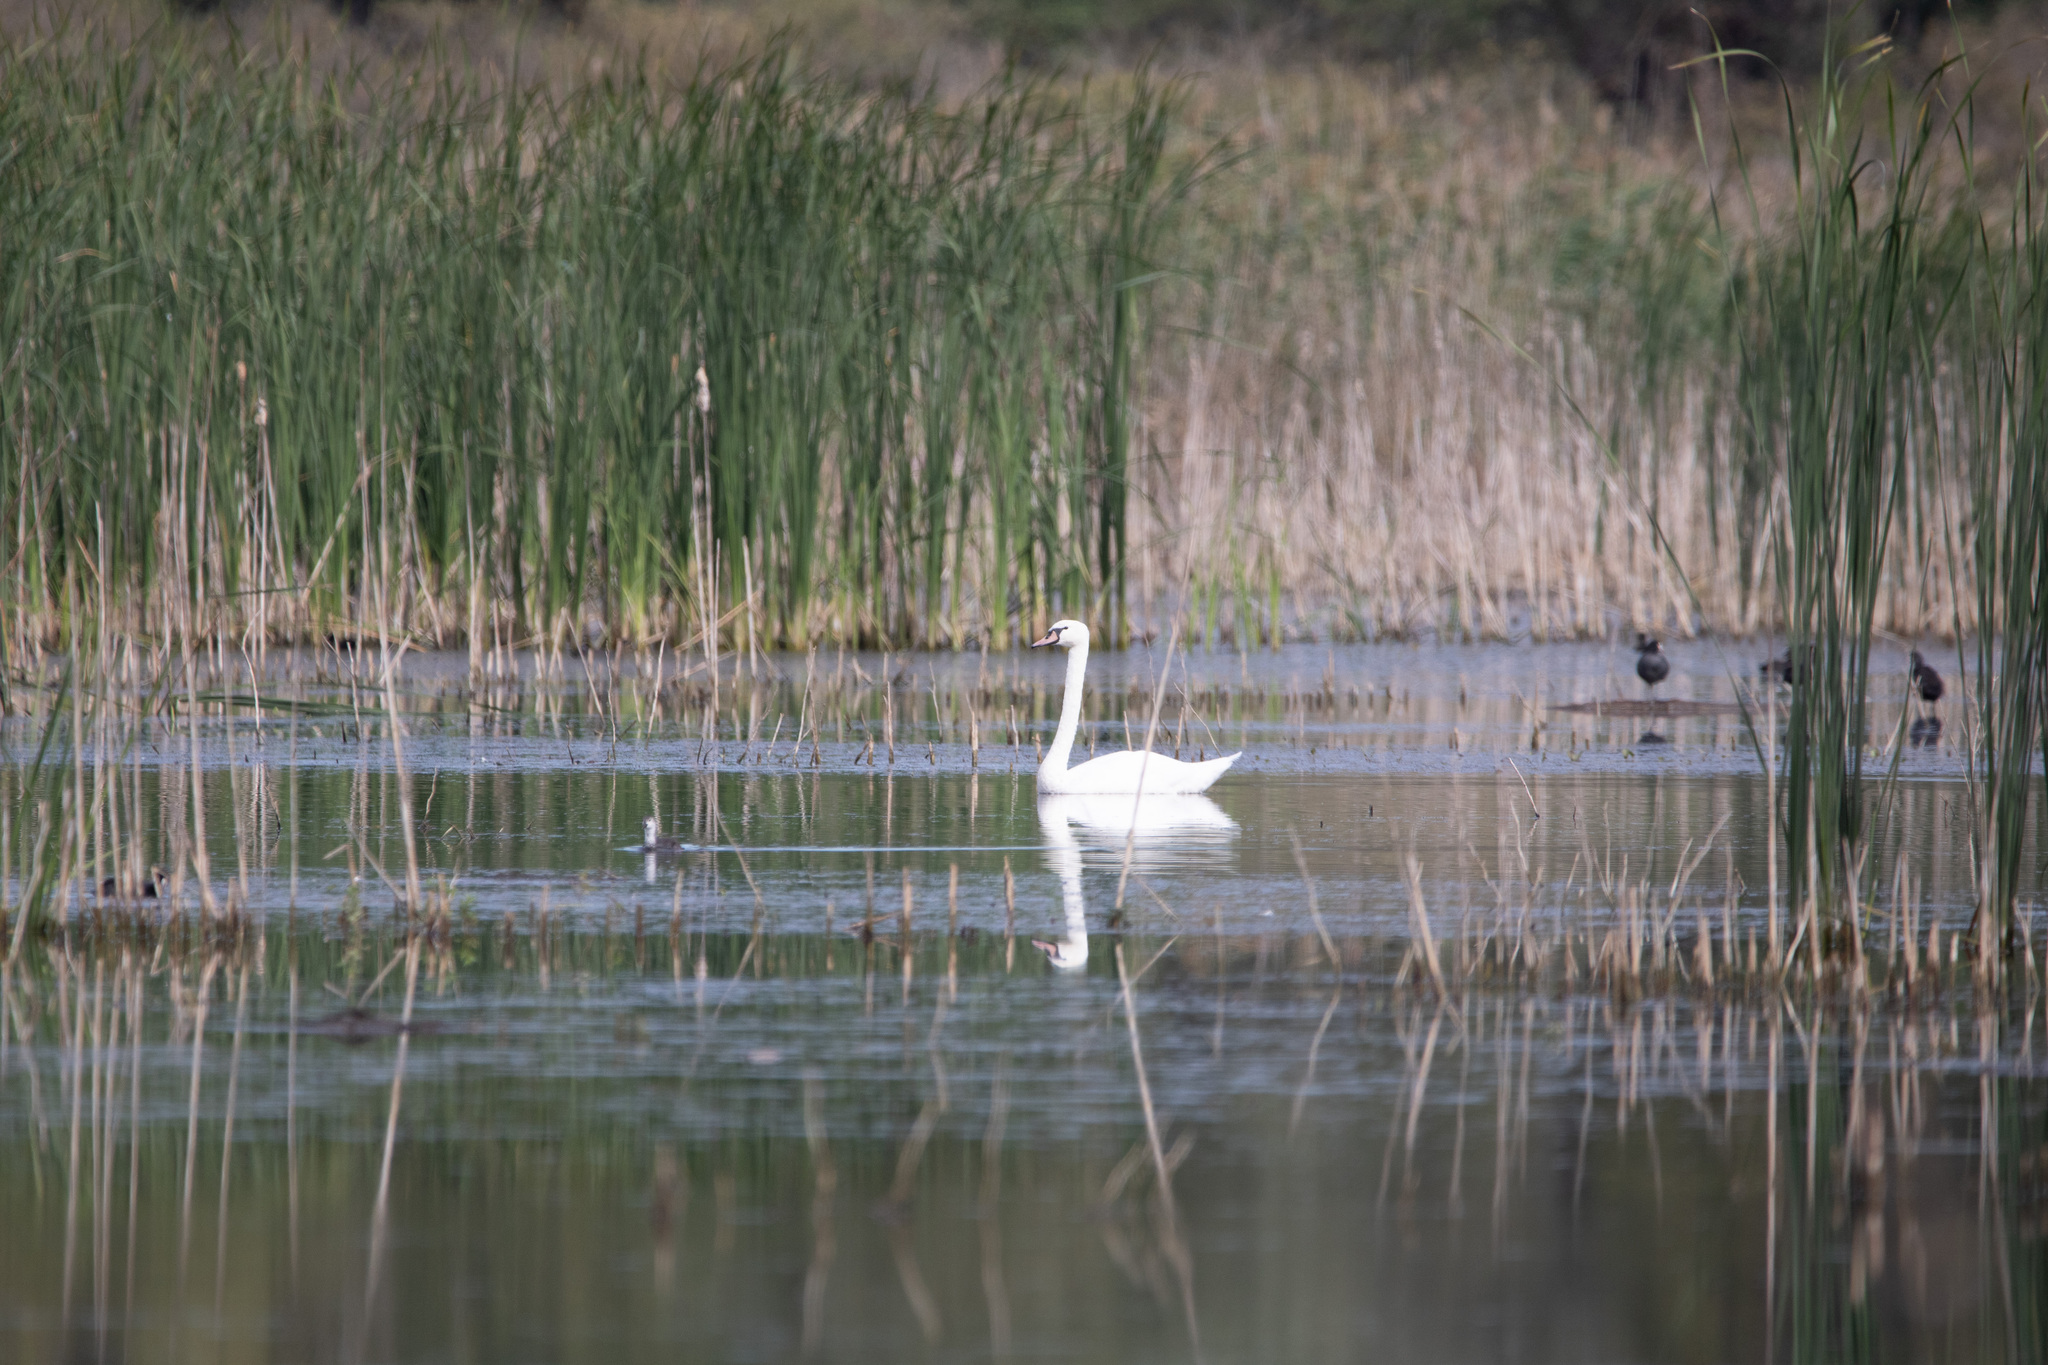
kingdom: Animalia
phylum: Chordata
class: Aves
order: Anseriformes
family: Anatidae
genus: Cygnus
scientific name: Cygnus olor
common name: Mute swan
